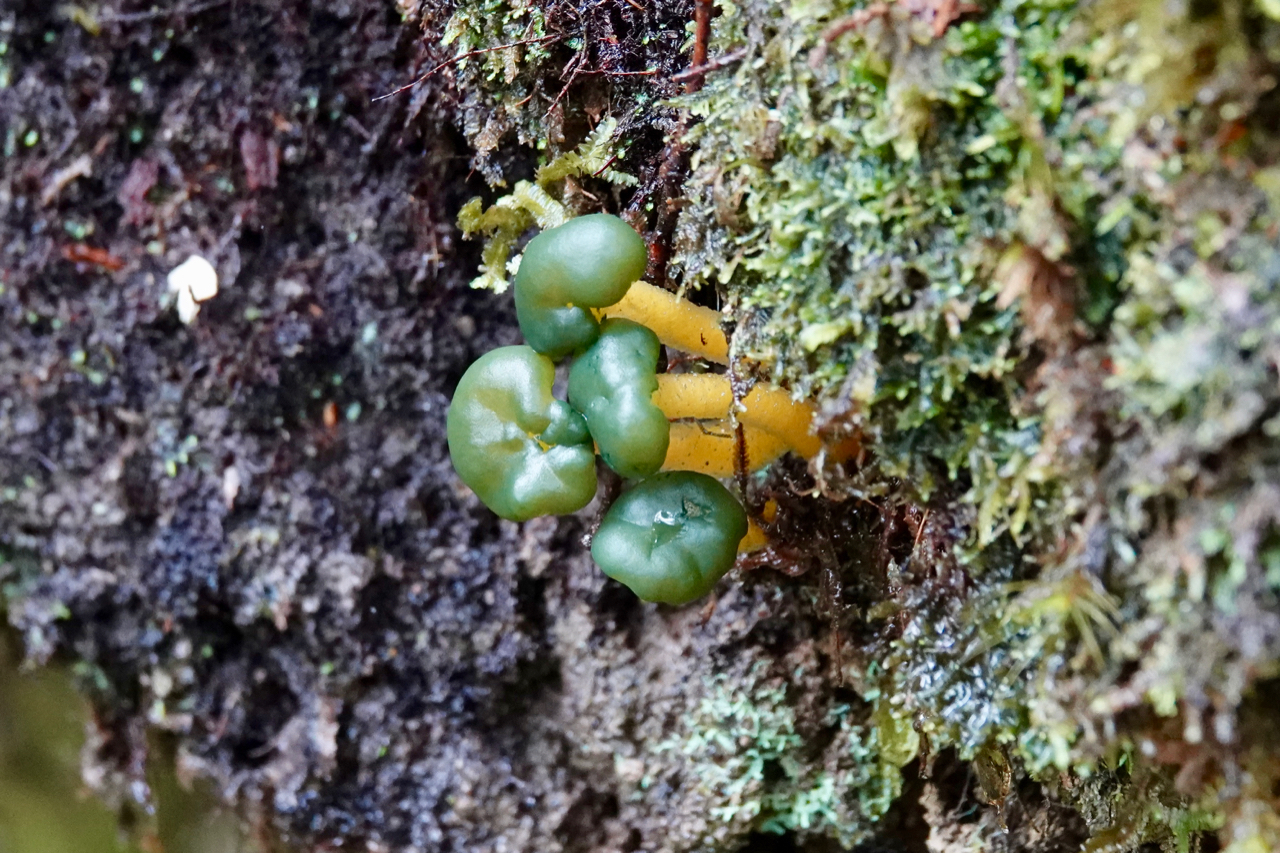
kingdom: Fungi
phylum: Ascomycota
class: Leotiomycetes
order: Leotiales
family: Leotiaceae
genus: Leotia
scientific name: Leotia lubrica
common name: Jellybaby
